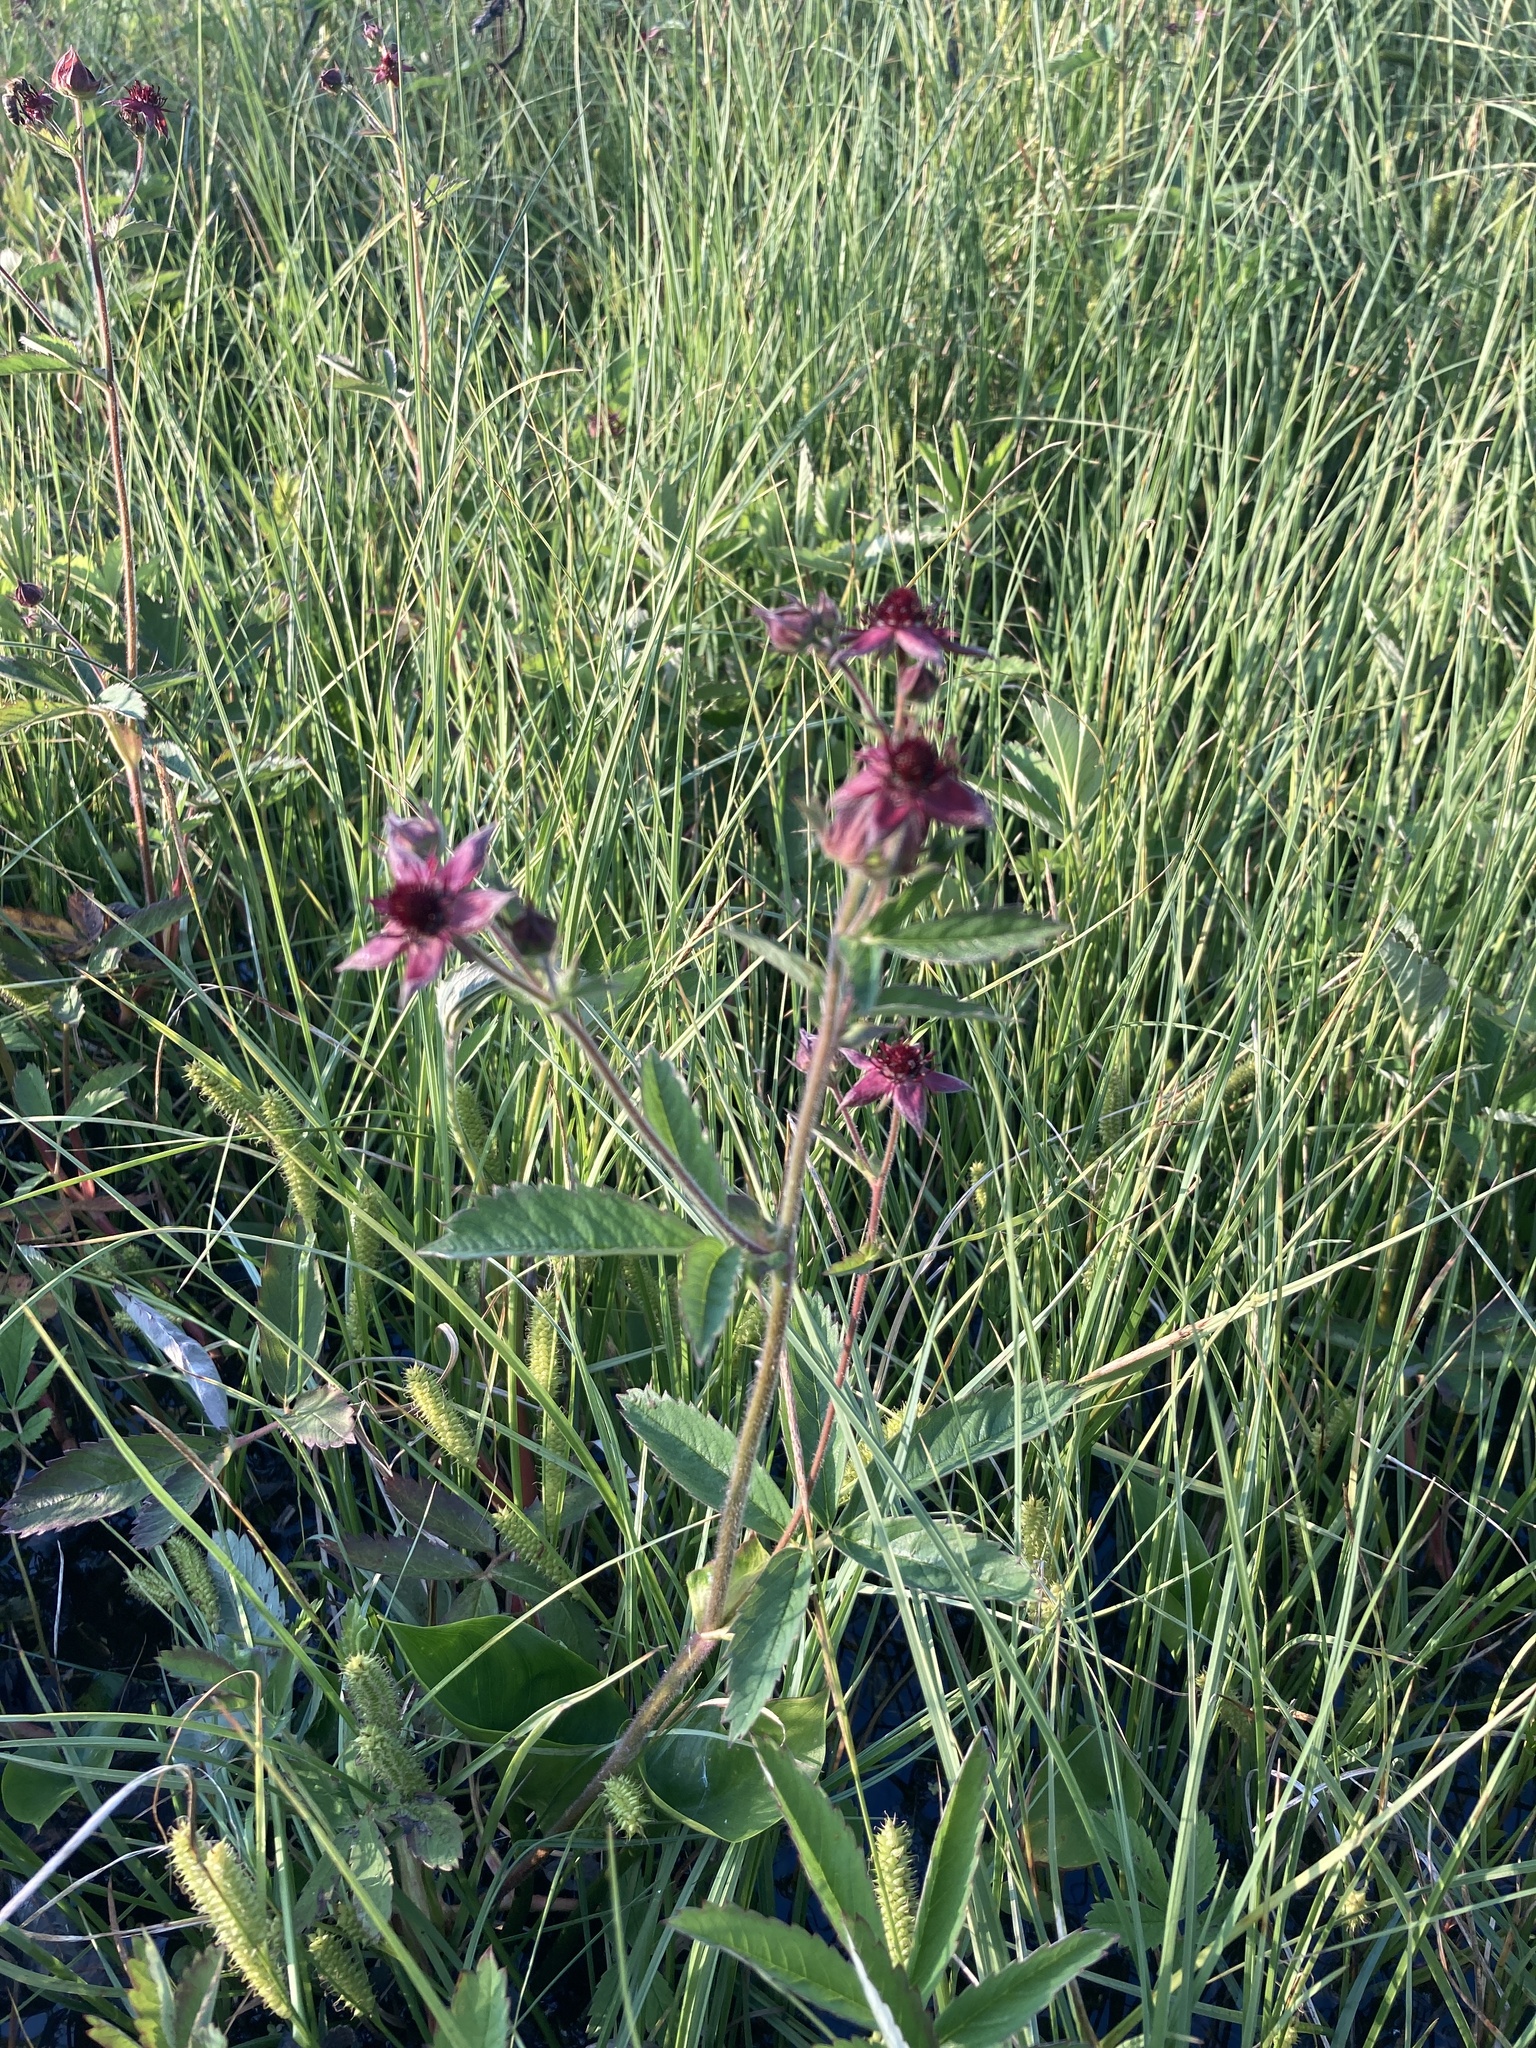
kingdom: Plantae
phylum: Tracheophyta
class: Magnoliopsida
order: Rosales
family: Rosaceae
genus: Comarum
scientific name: Comarum palustre
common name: Marsh cinquefoil
